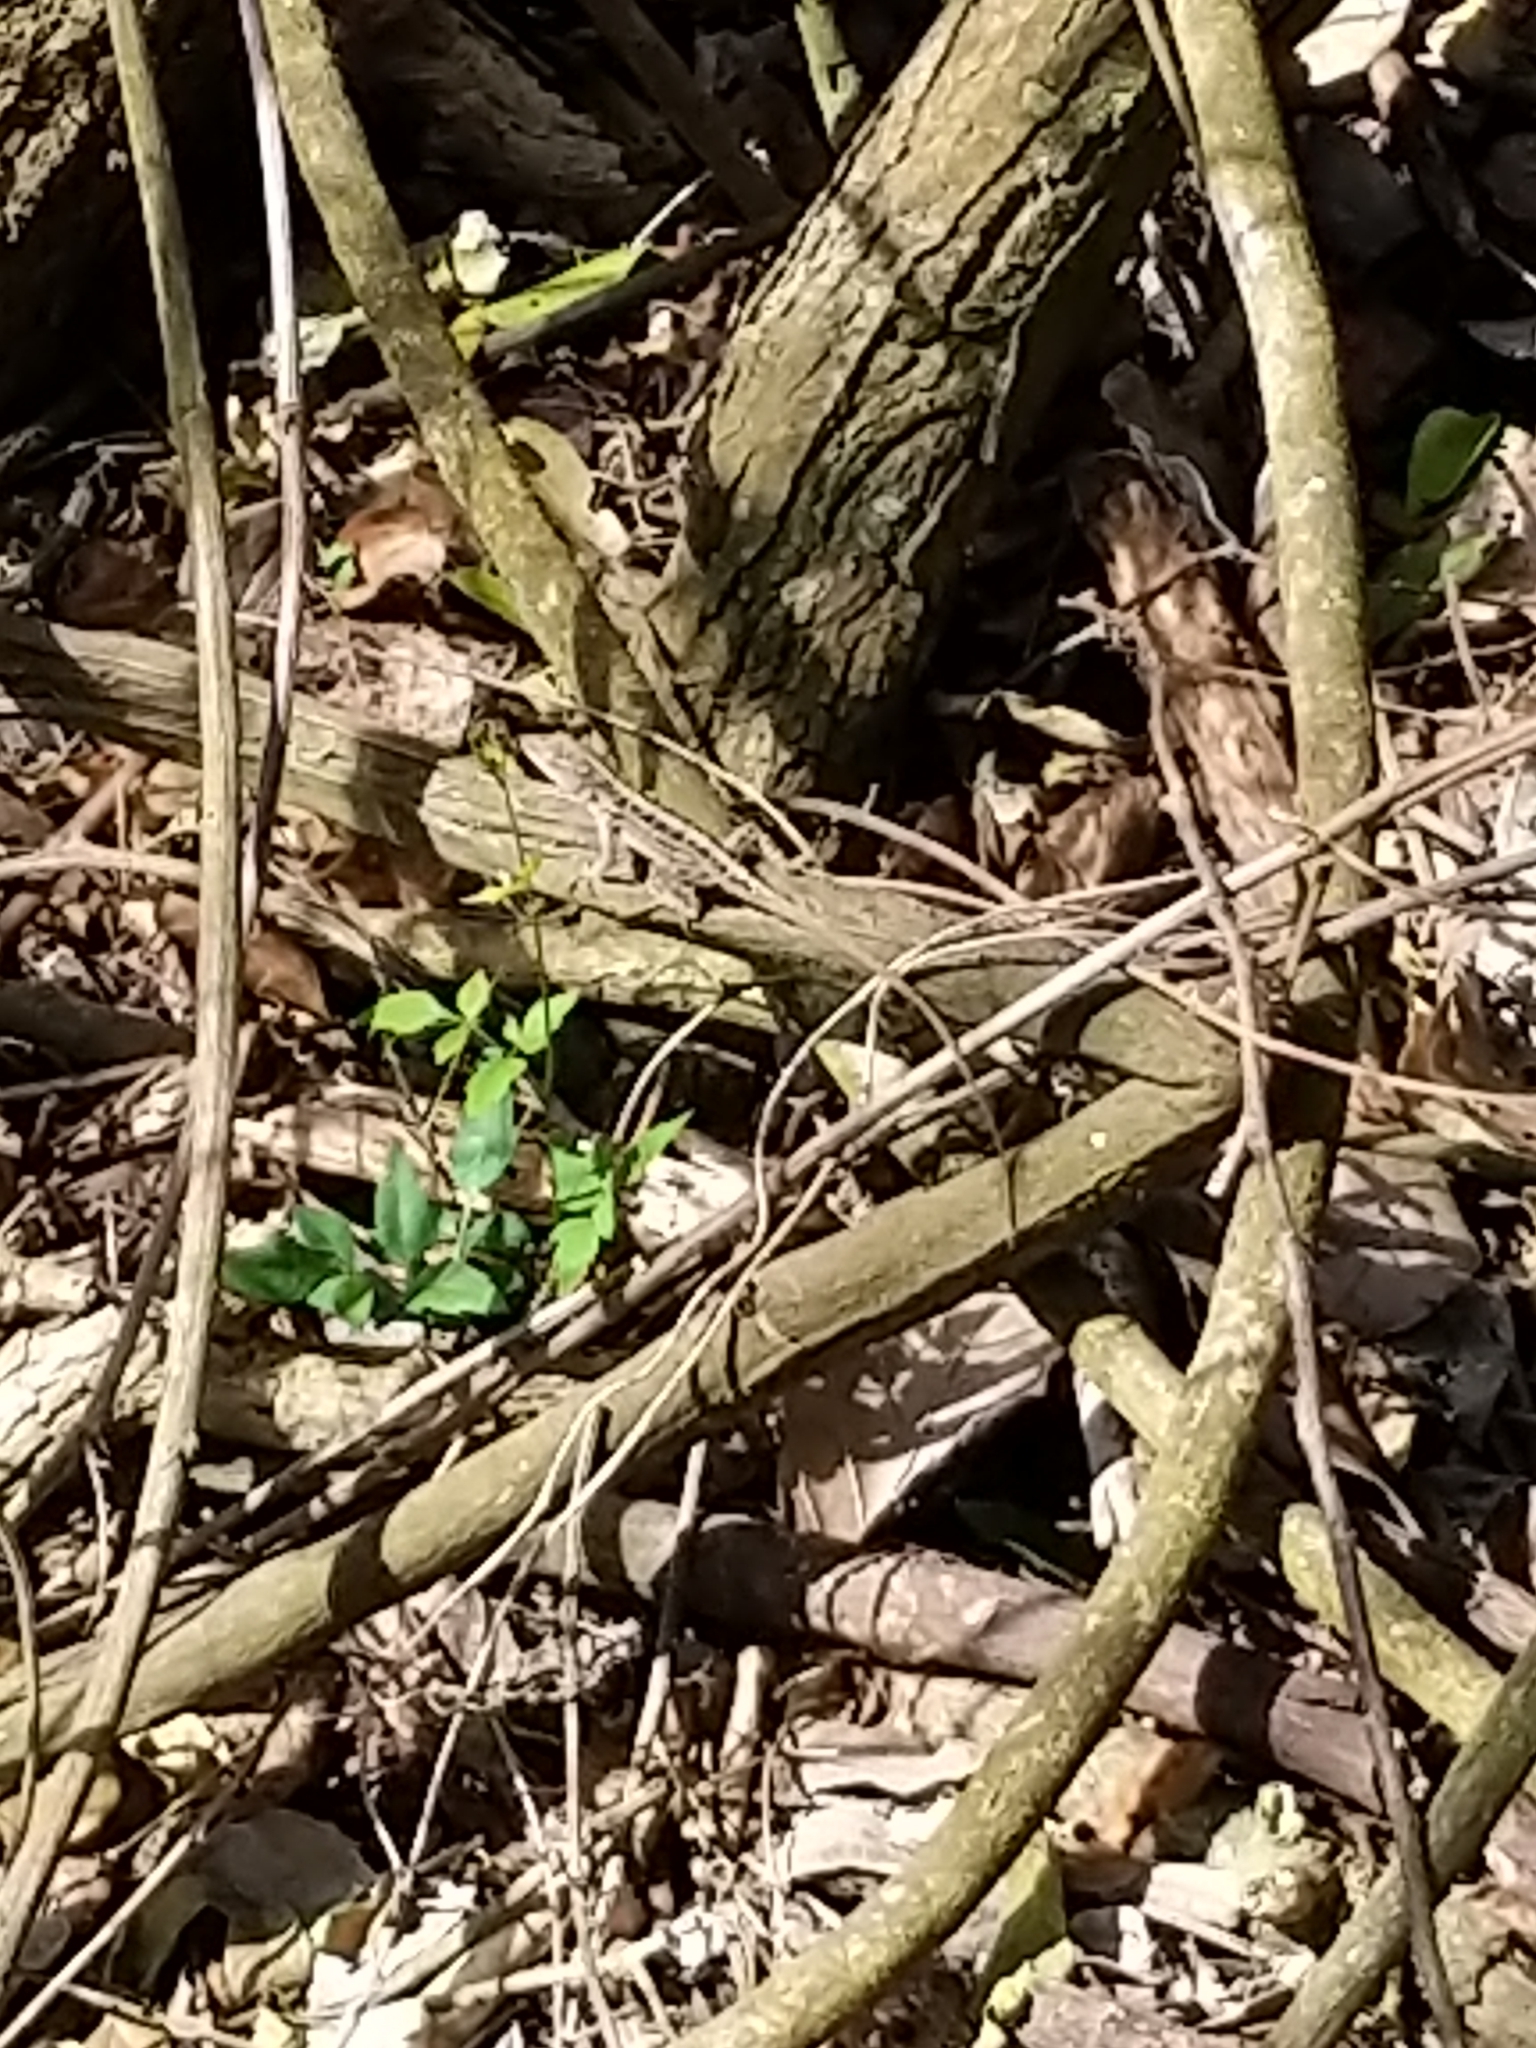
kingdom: Animalia
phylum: Chordata
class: Squamata
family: Dactyloidae
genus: Anolis
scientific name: Anolis sagrei
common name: Brown anole
